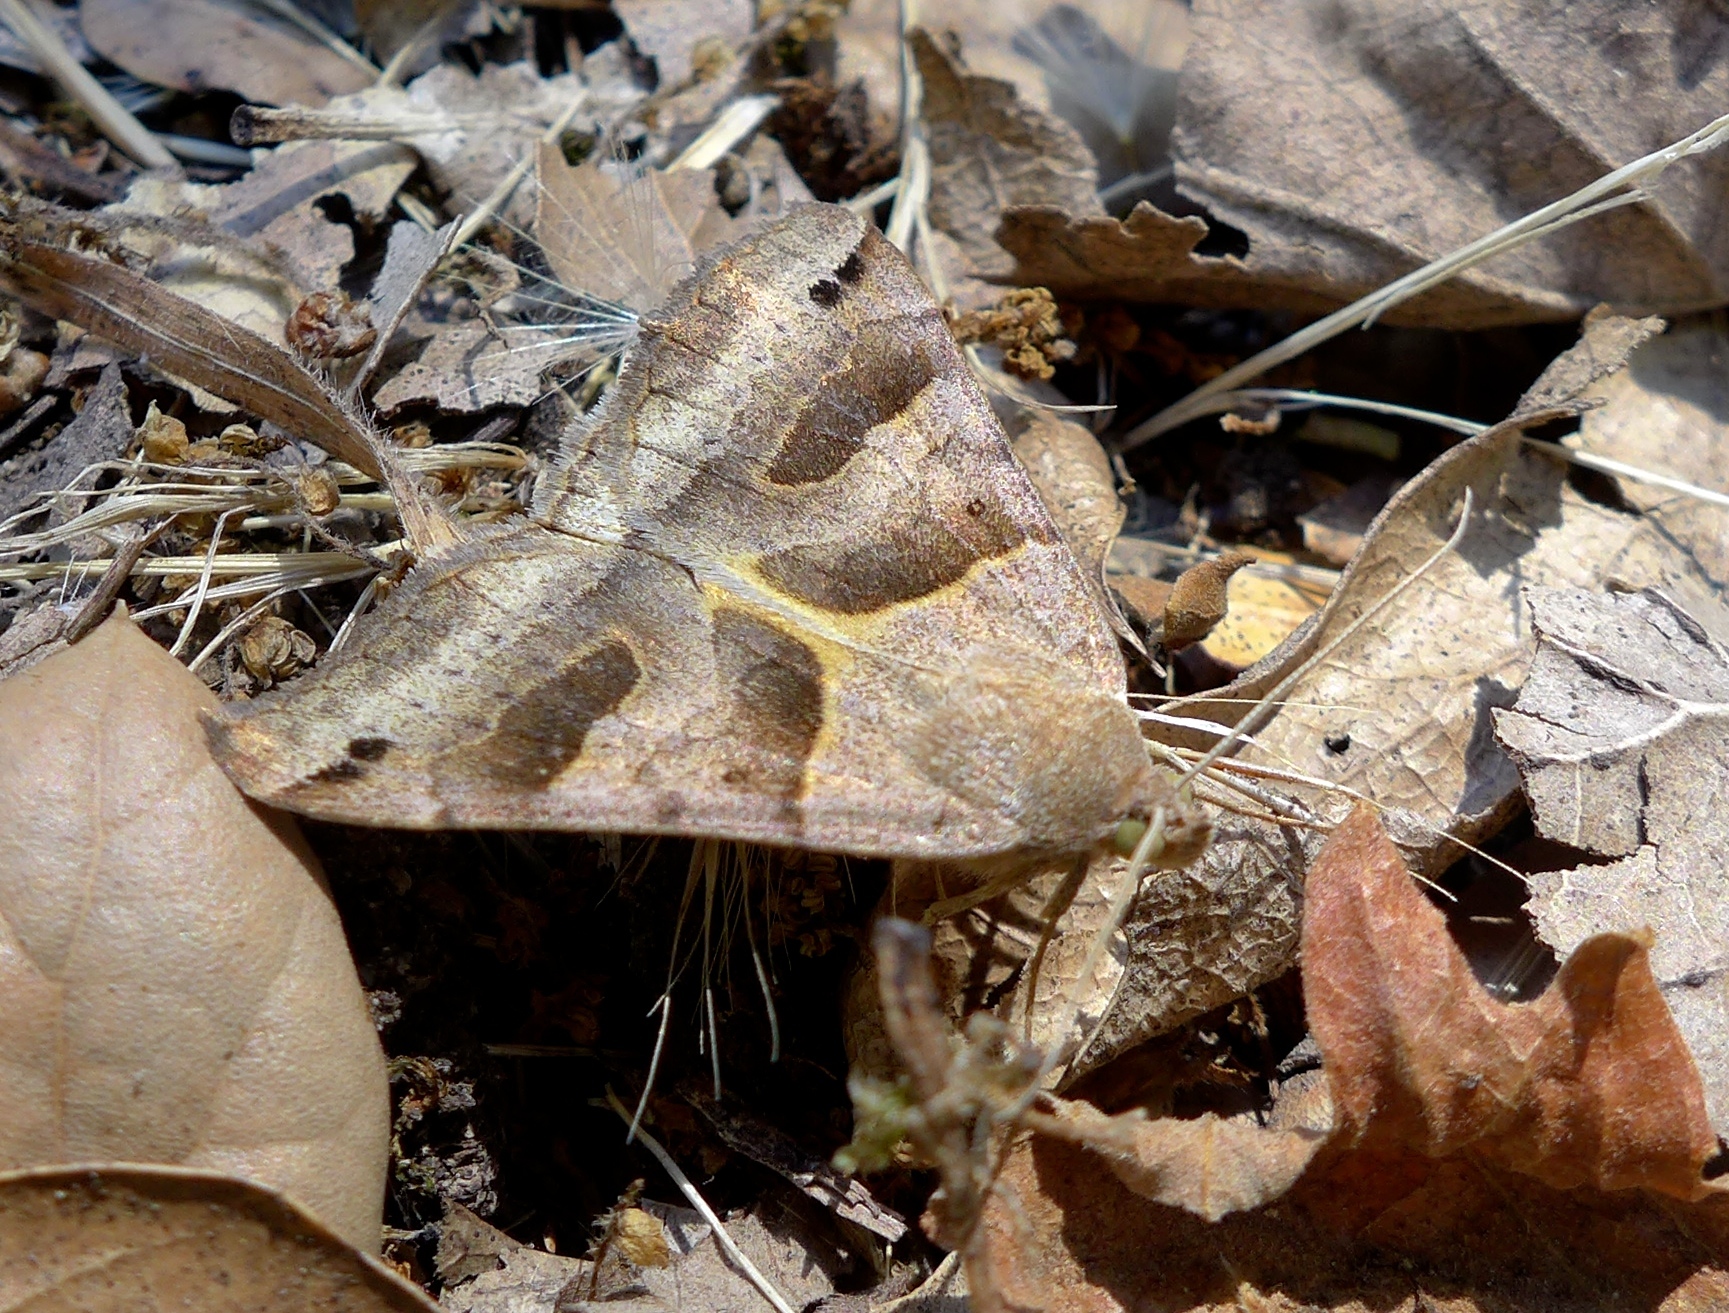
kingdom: Animalia
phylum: Arthropoda
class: Insecta
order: Lepidoptera
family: Erebidae
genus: Caenurgina
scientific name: Caenurgina erechtea
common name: Forage looper moth
